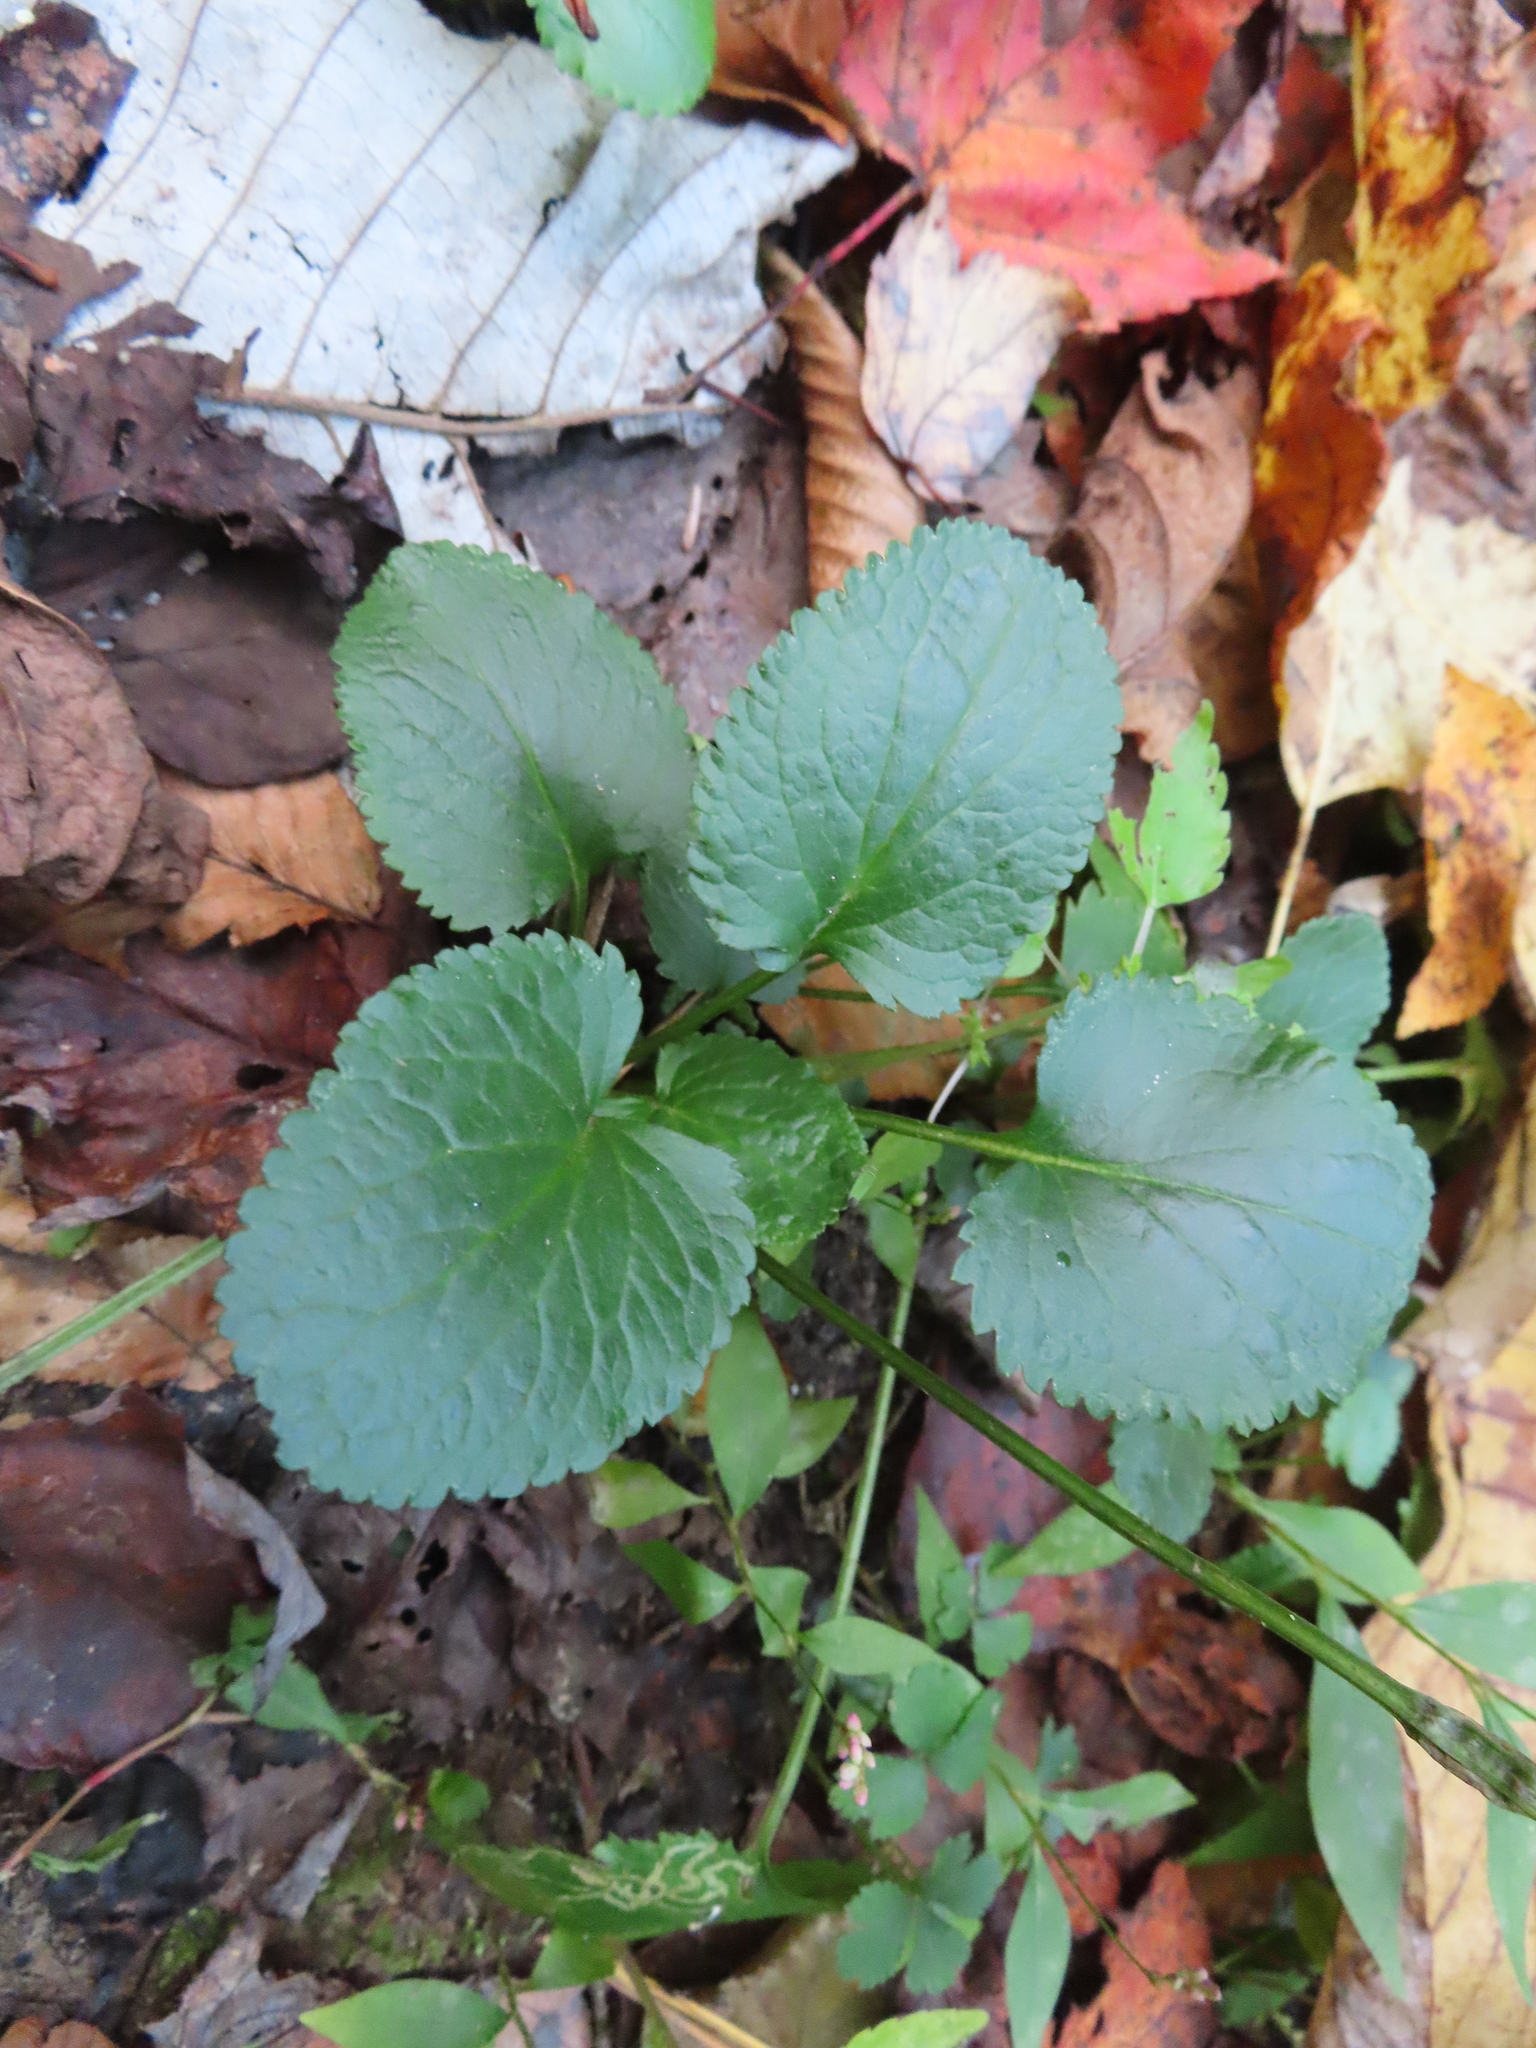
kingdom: Animalia
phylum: Arthropoda
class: Insecta
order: Lepidoptera
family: Gracillariidae
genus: Phyllocnistis
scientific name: Phyllocnistis insignis
